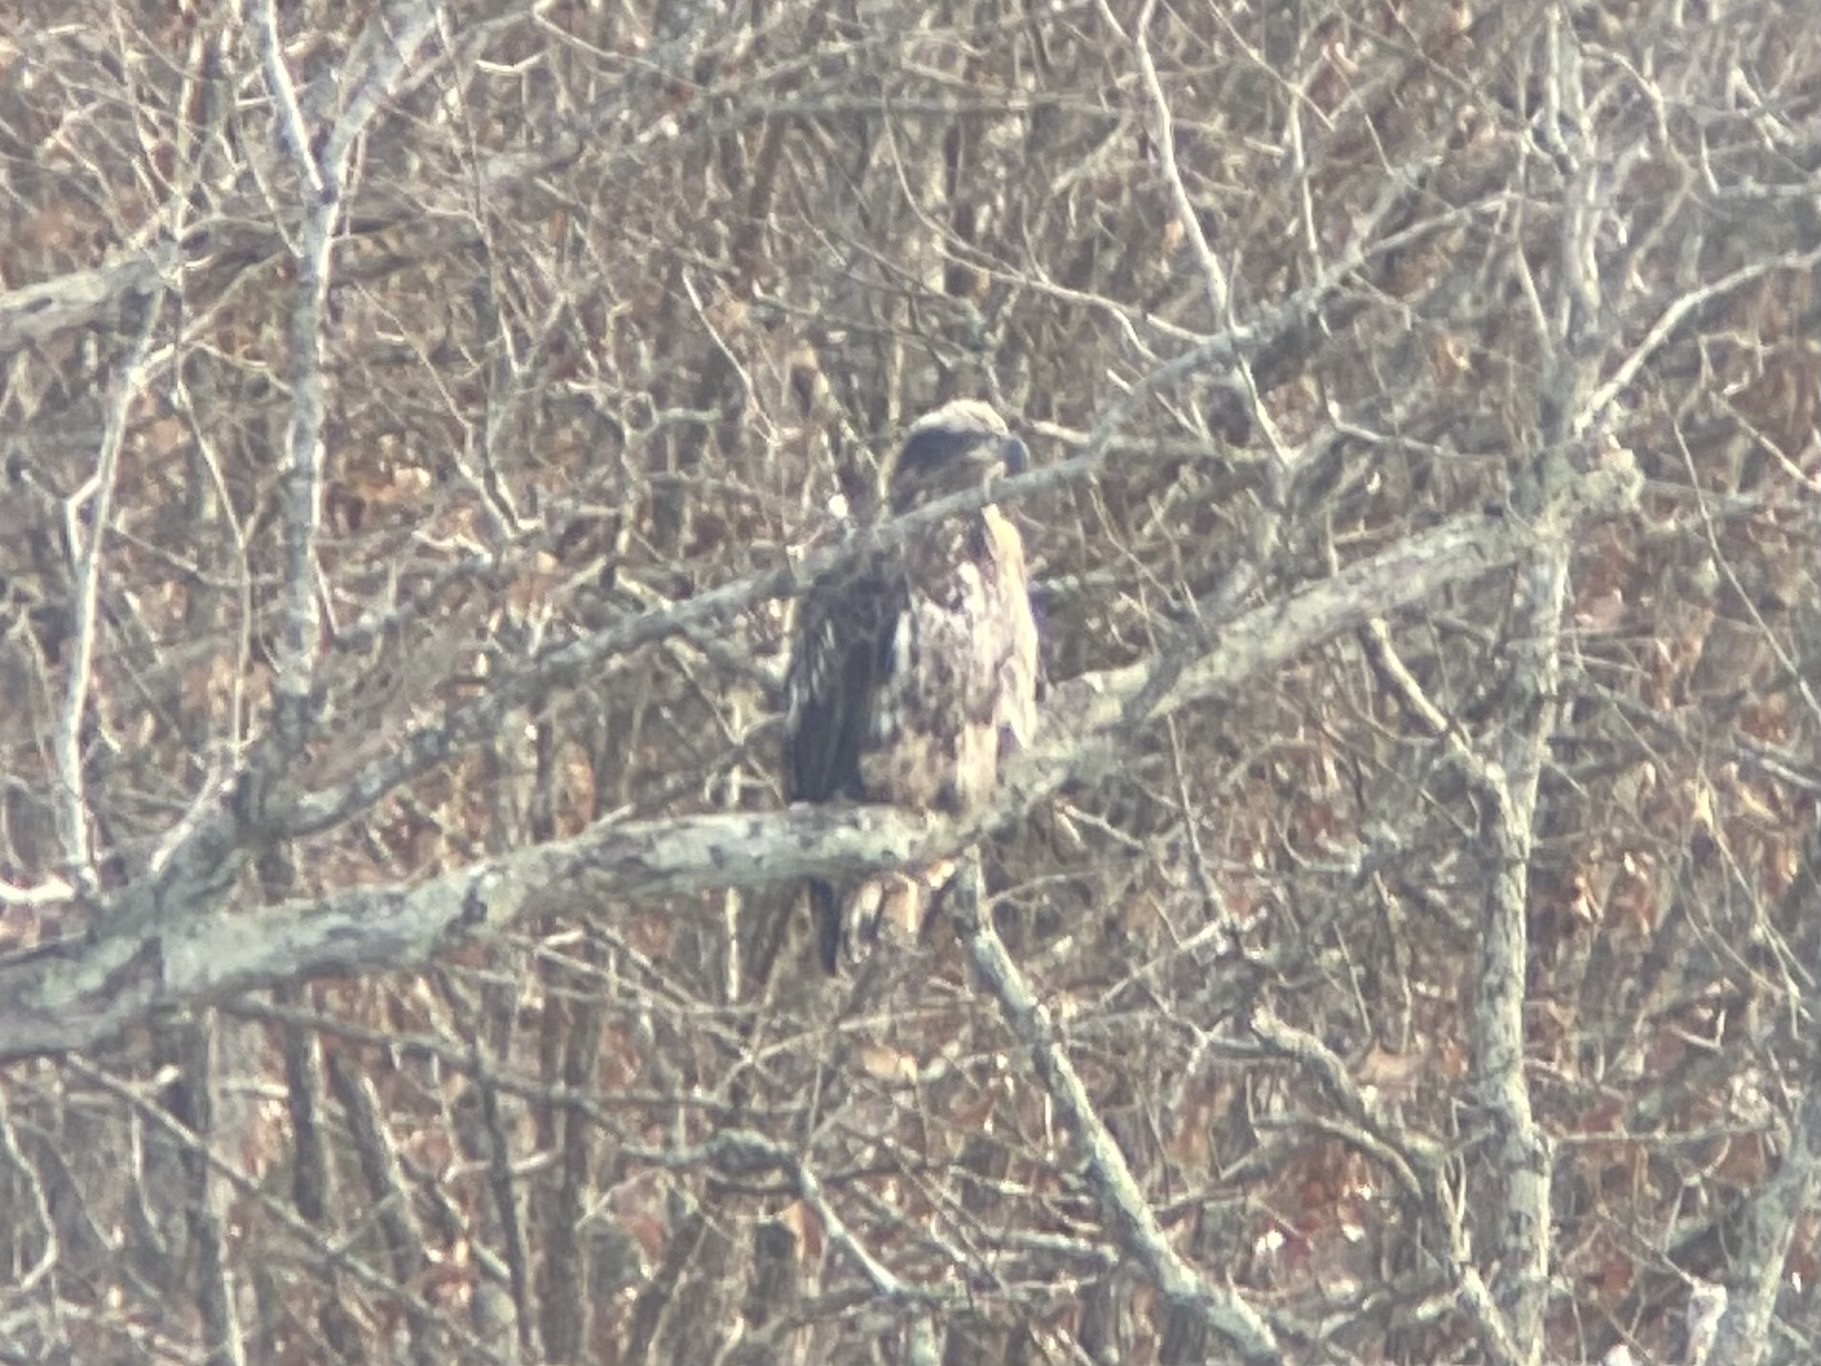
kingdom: Animalia
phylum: Chordata
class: Aves
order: Accipitriformes
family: Accipitridae
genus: Haliaeetus
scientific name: Haliaeetus leucocephalus
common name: Bald eagle
